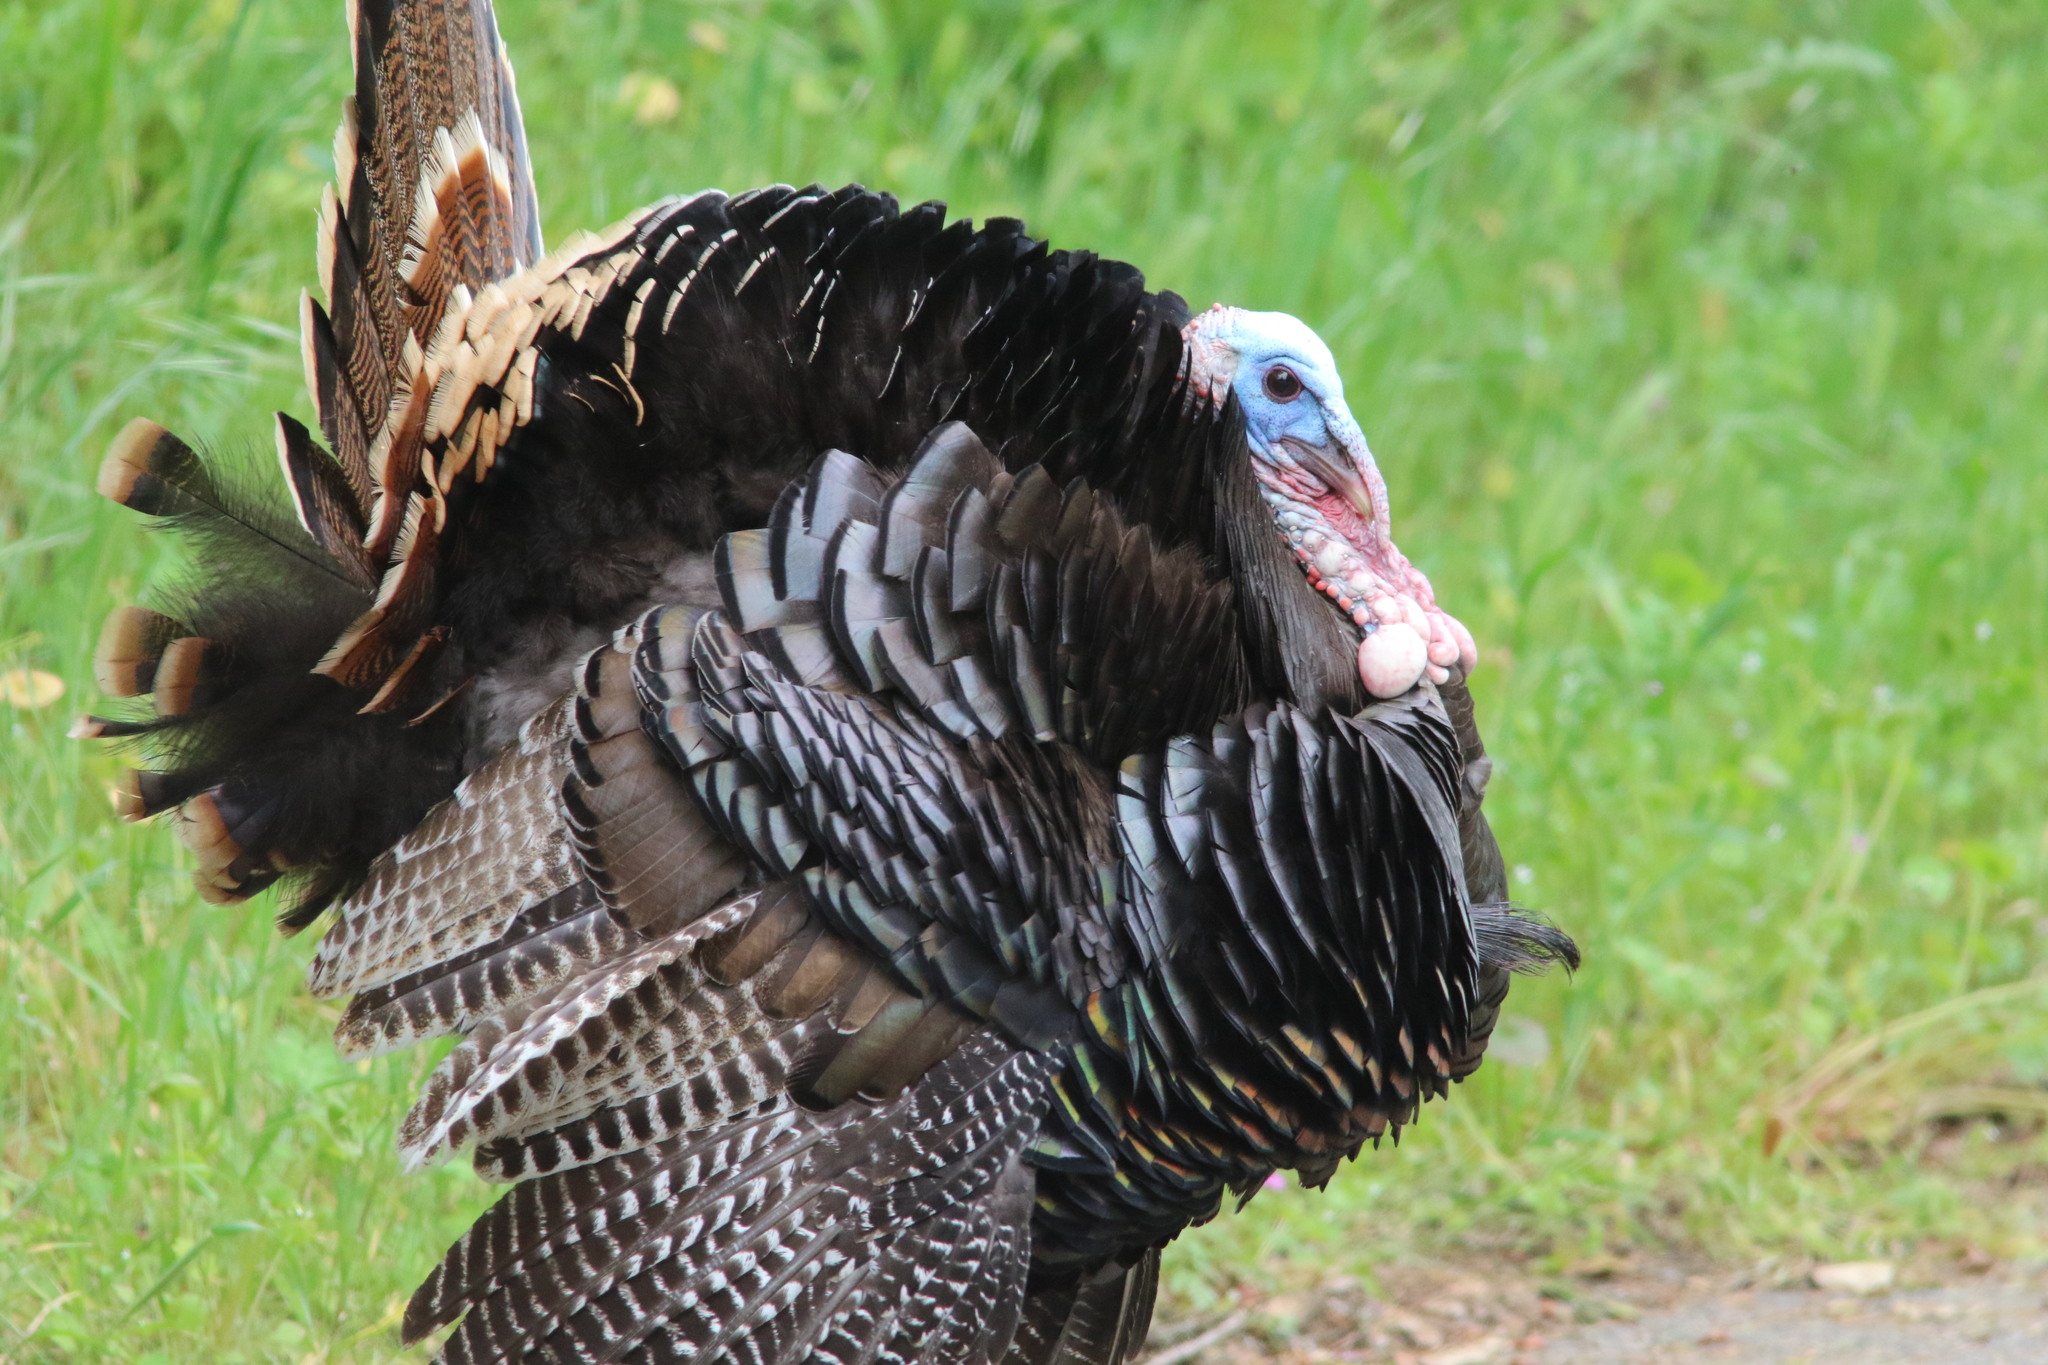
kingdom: Animalia
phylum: Chordata
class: Aves
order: Galliformes
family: Phasianidae
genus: Meleagris
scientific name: Meleagris gallopavo
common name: Wild turkey
